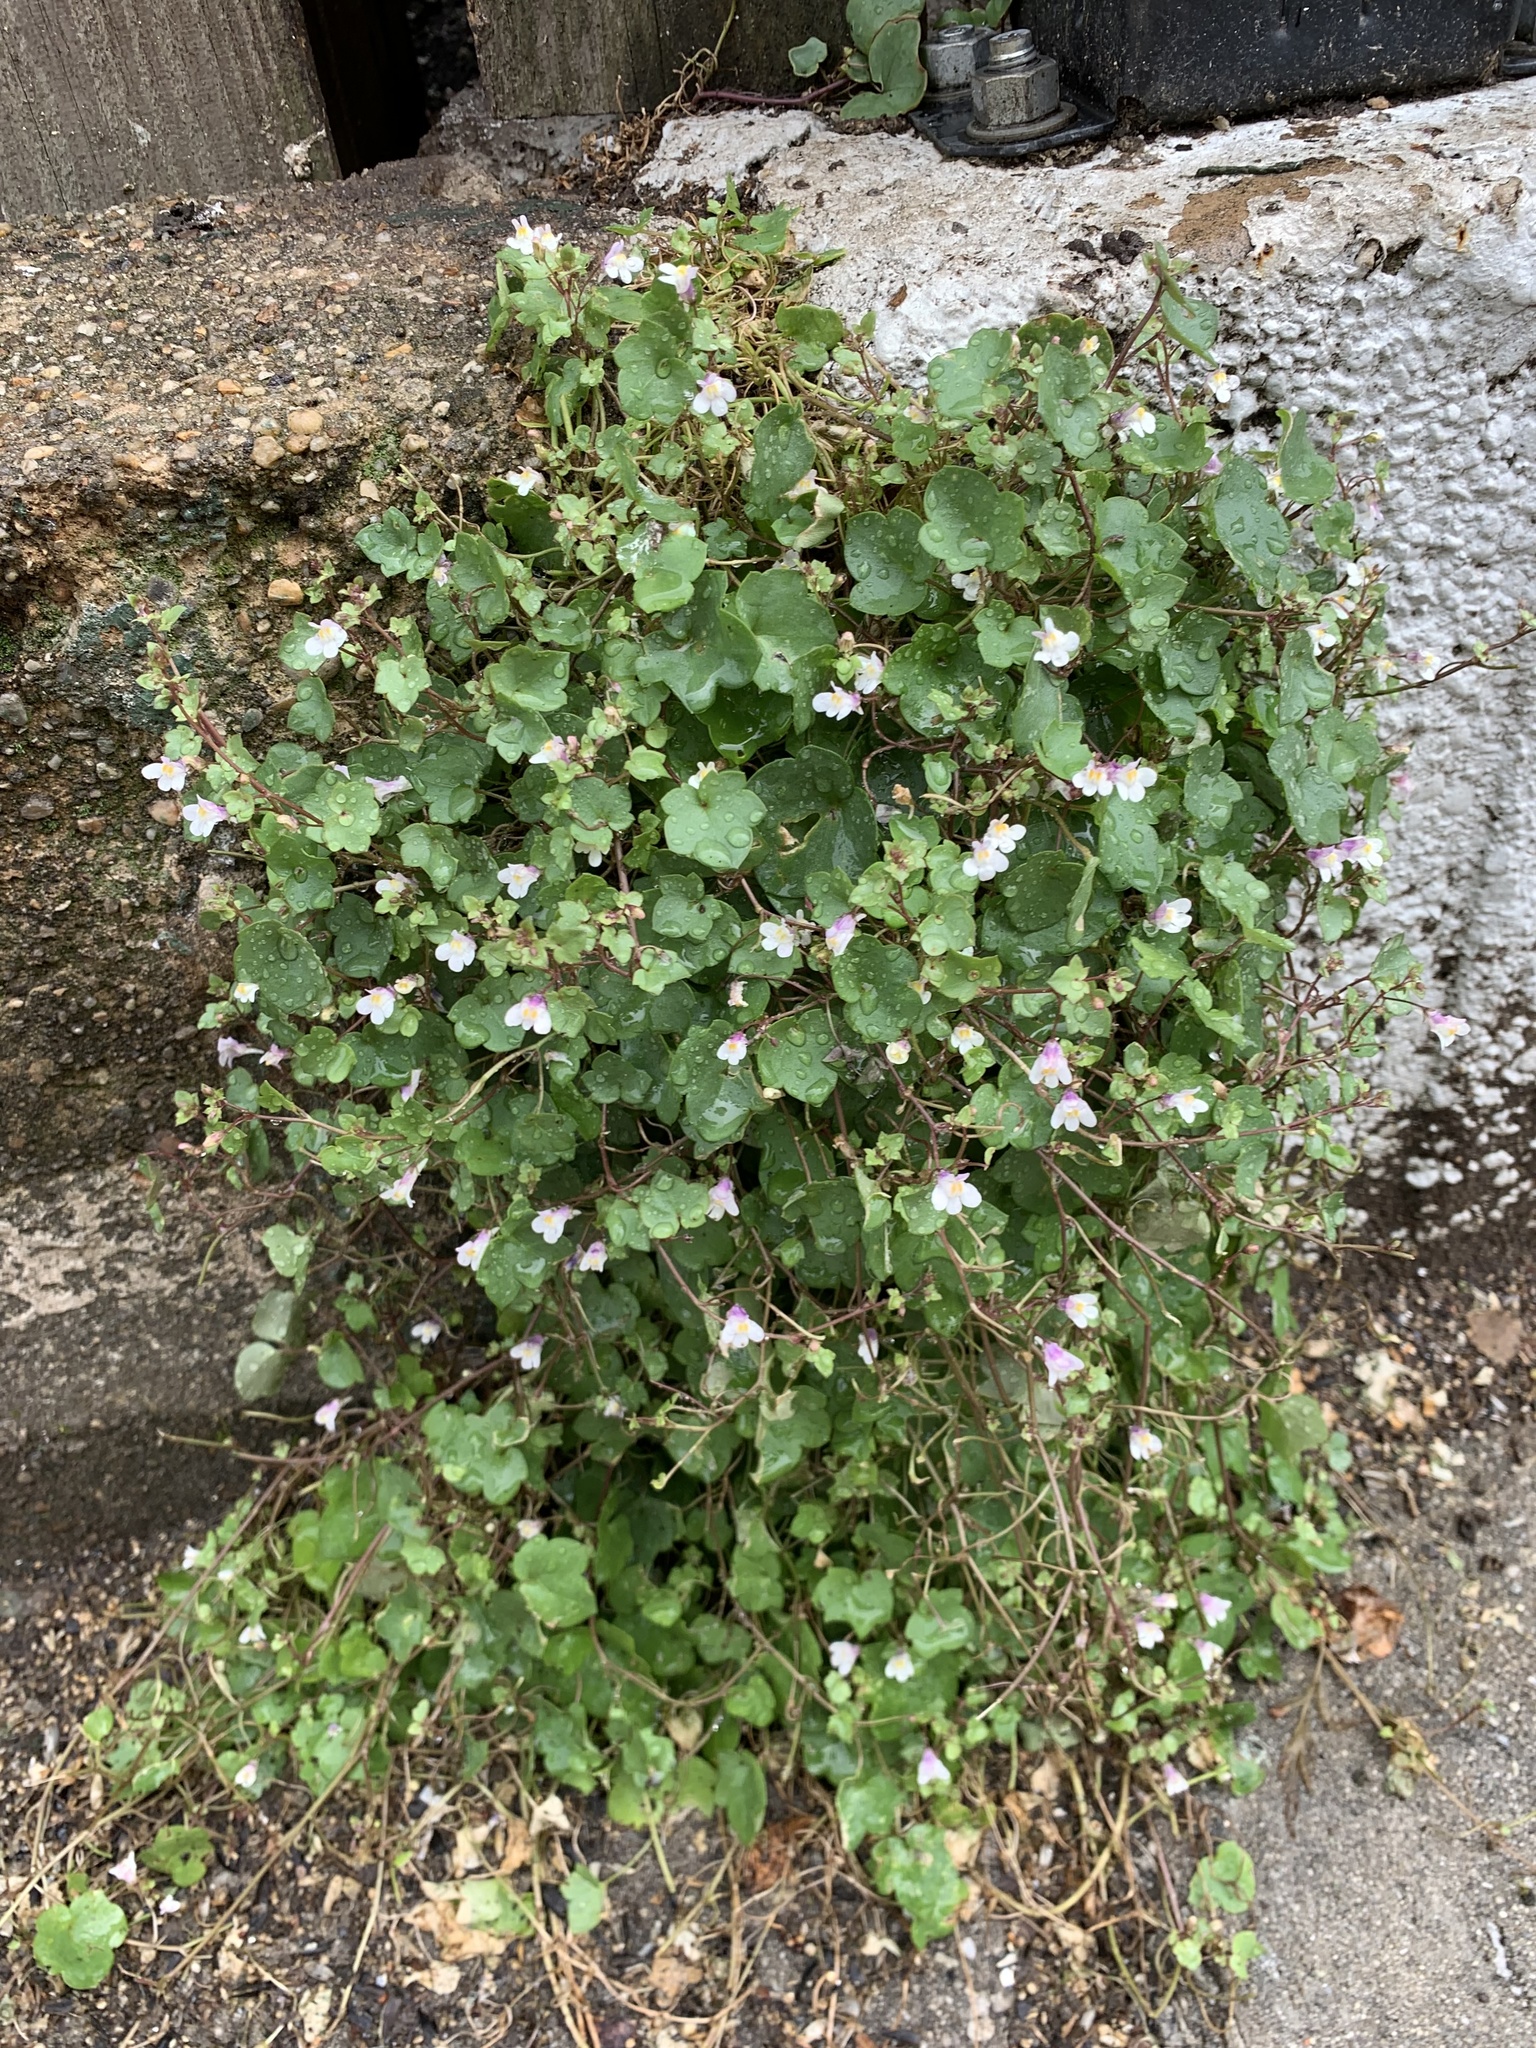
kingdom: Plantae
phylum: Tracheophyta
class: Magnoliopsida
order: Lamiales
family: Plantaginaceae
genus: Cymbalaria
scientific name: Cymbalaria muralis
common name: Ivy-leaved toadflax
